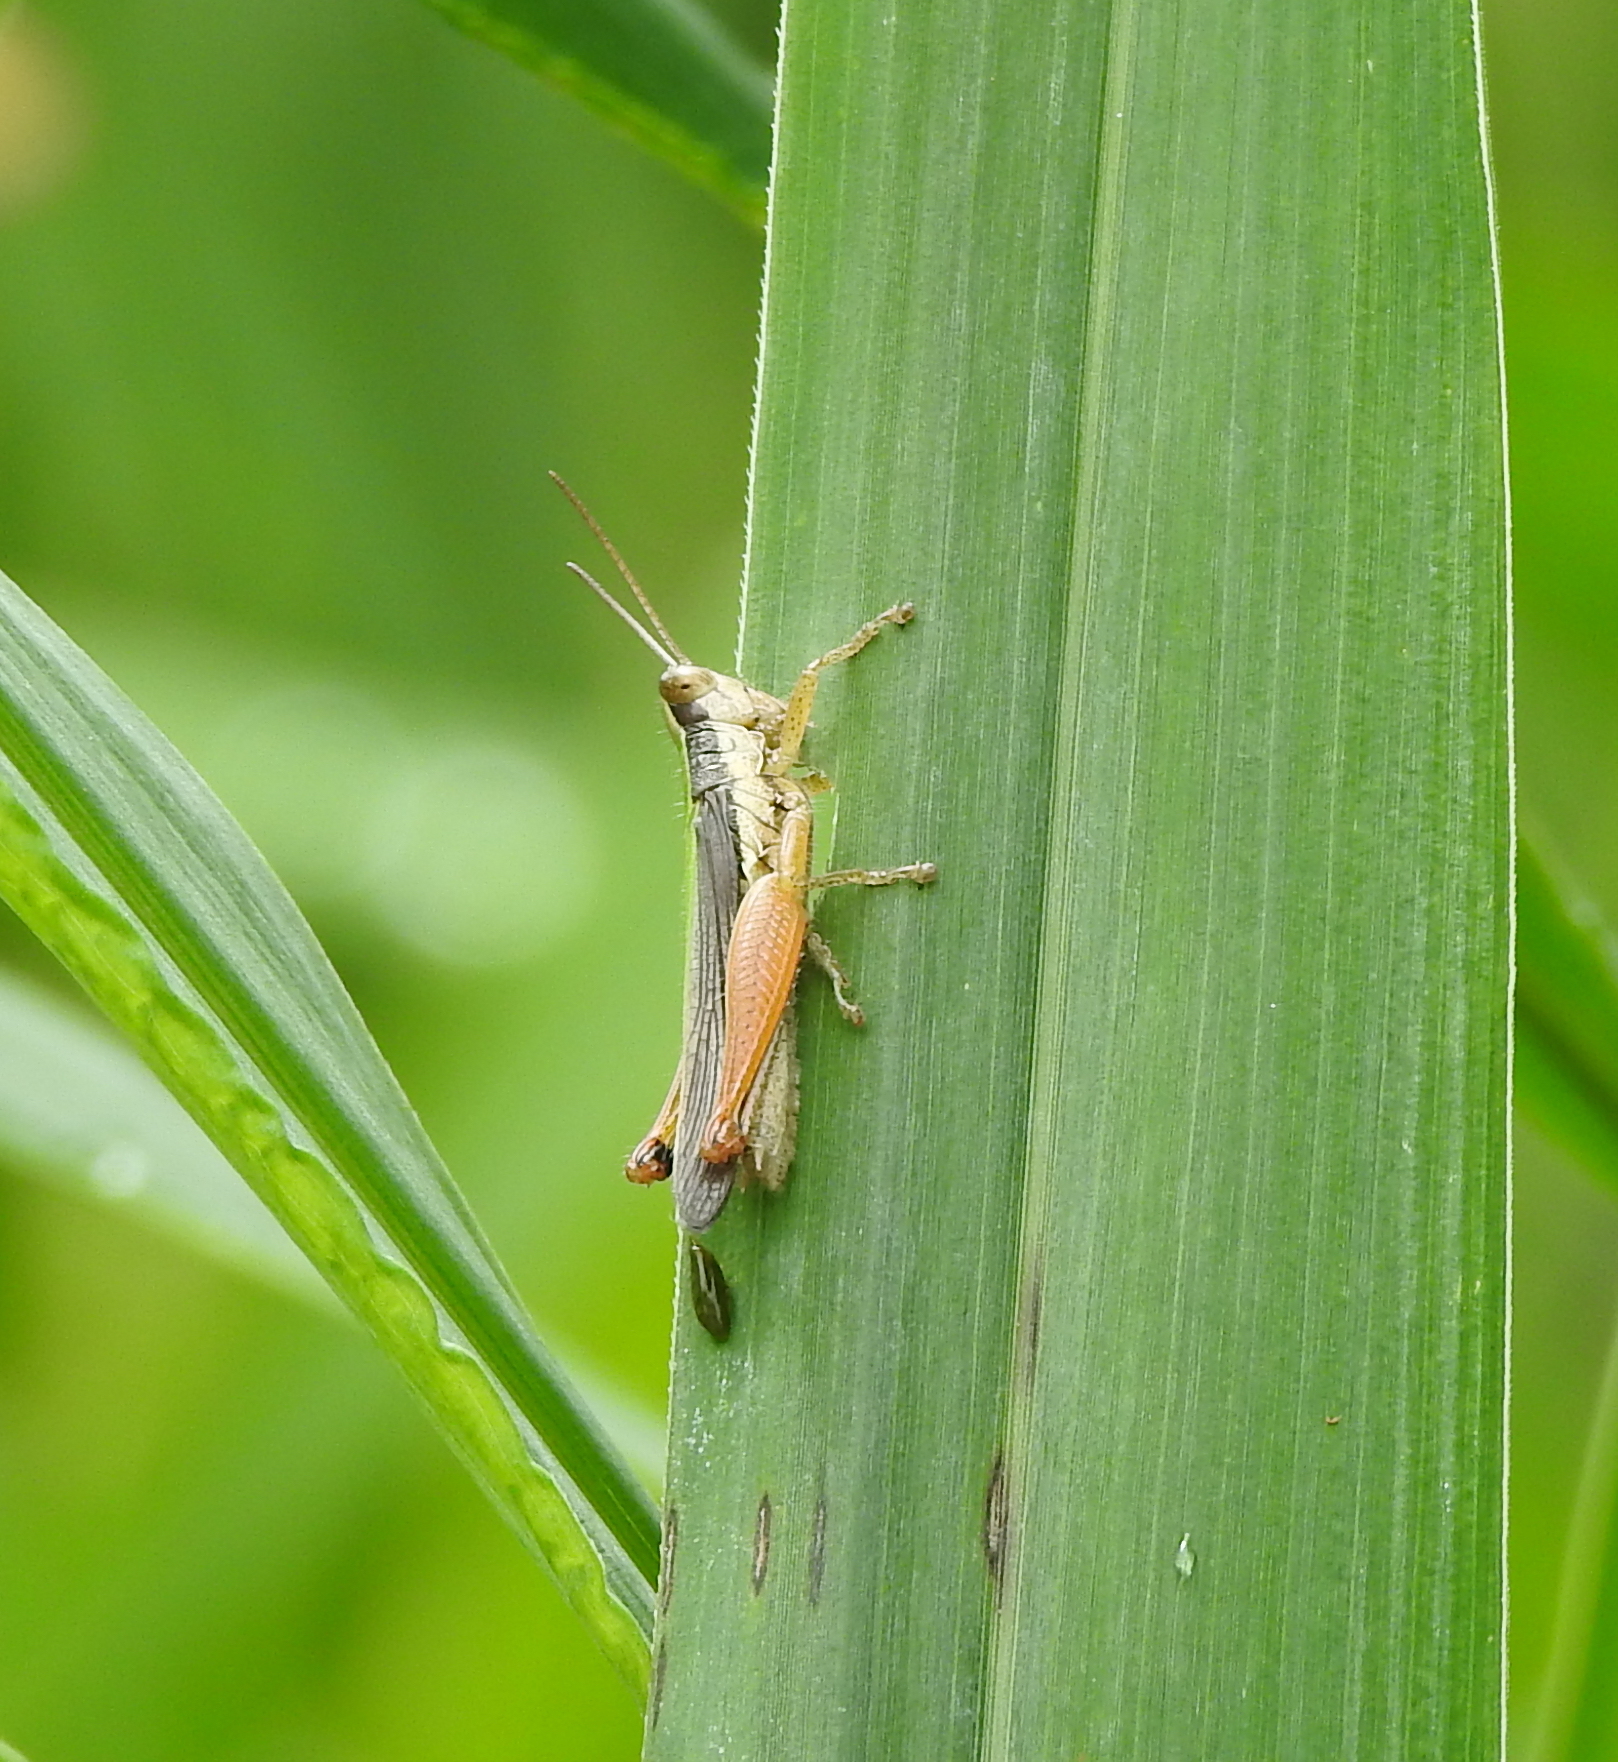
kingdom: Animalia
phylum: Arthropoda
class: Insecta
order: Orthoptera
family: Acrididae
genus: Oxya
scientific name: Oxya intricata
